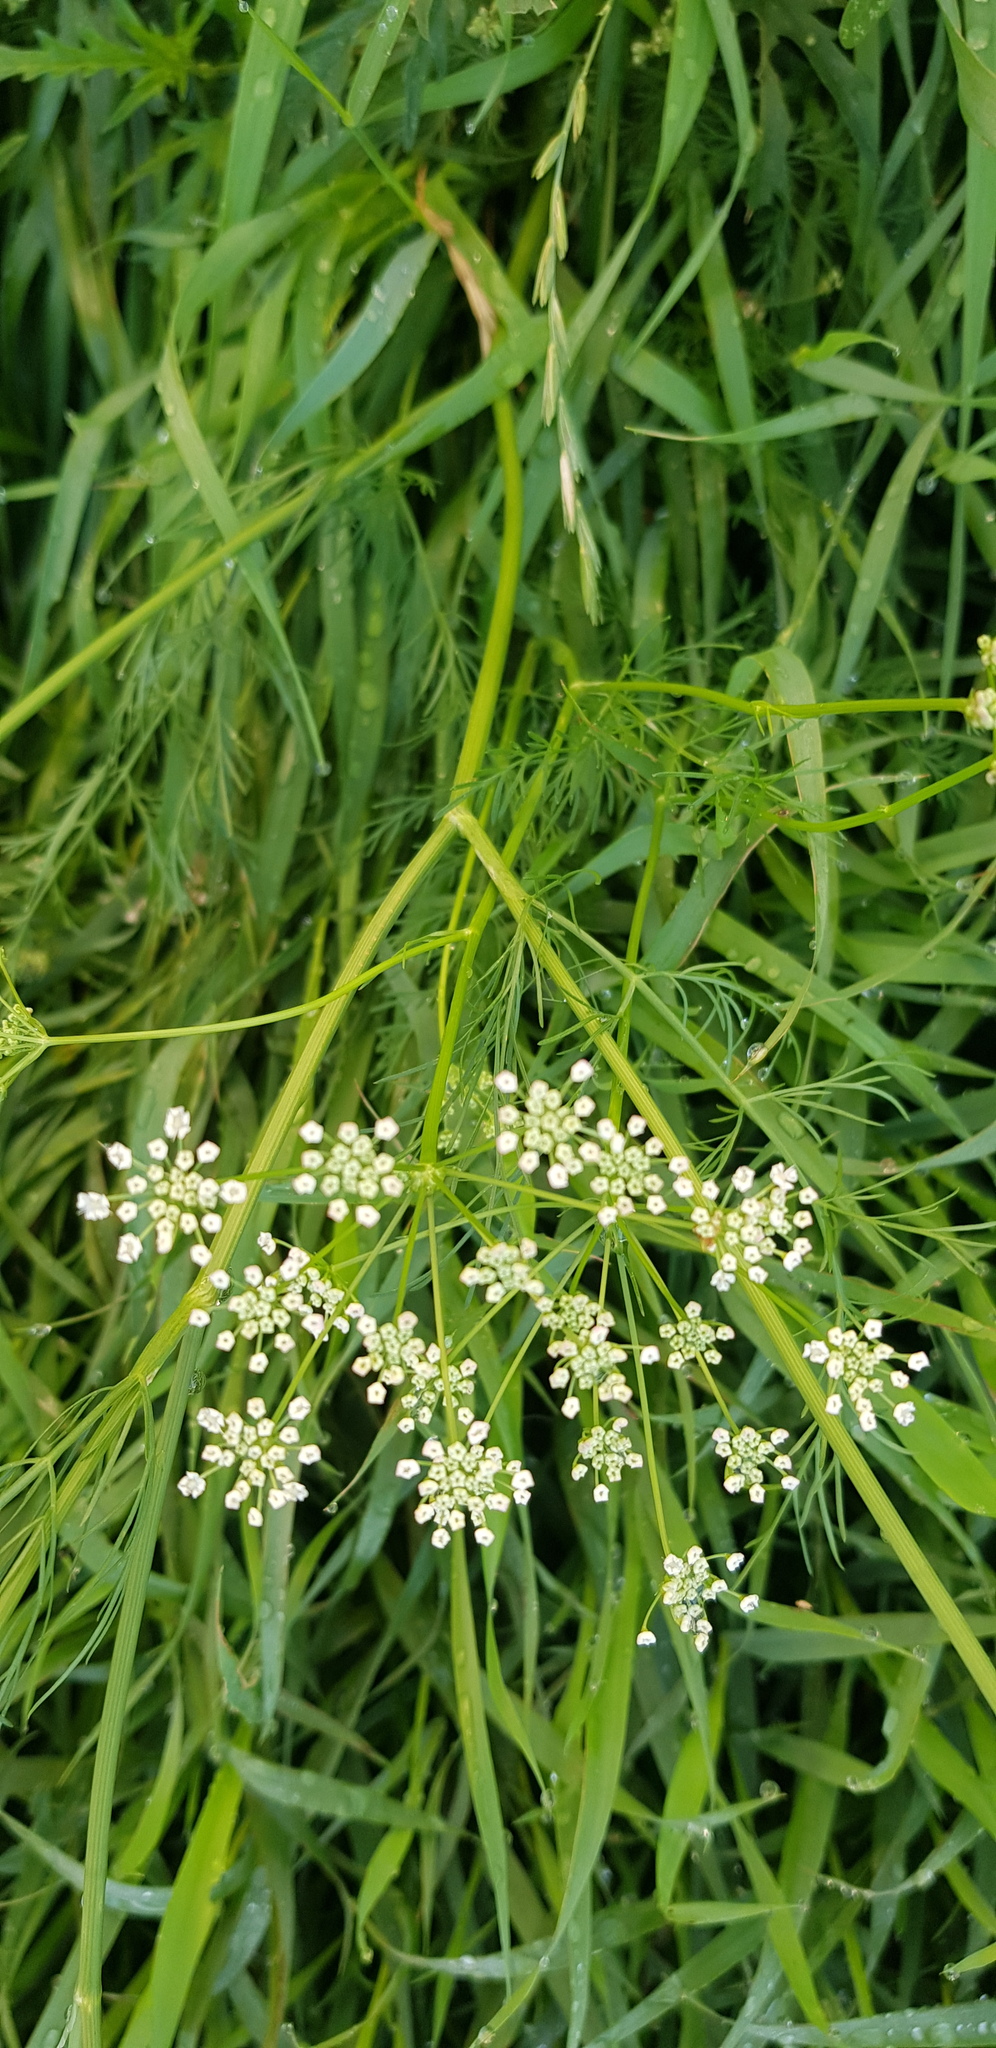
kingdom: Plantae
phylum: Tracheophyta
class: Magnoliopsida
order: Apiales
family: Apiaceae
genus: Carum
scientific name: Carum buriaticum
